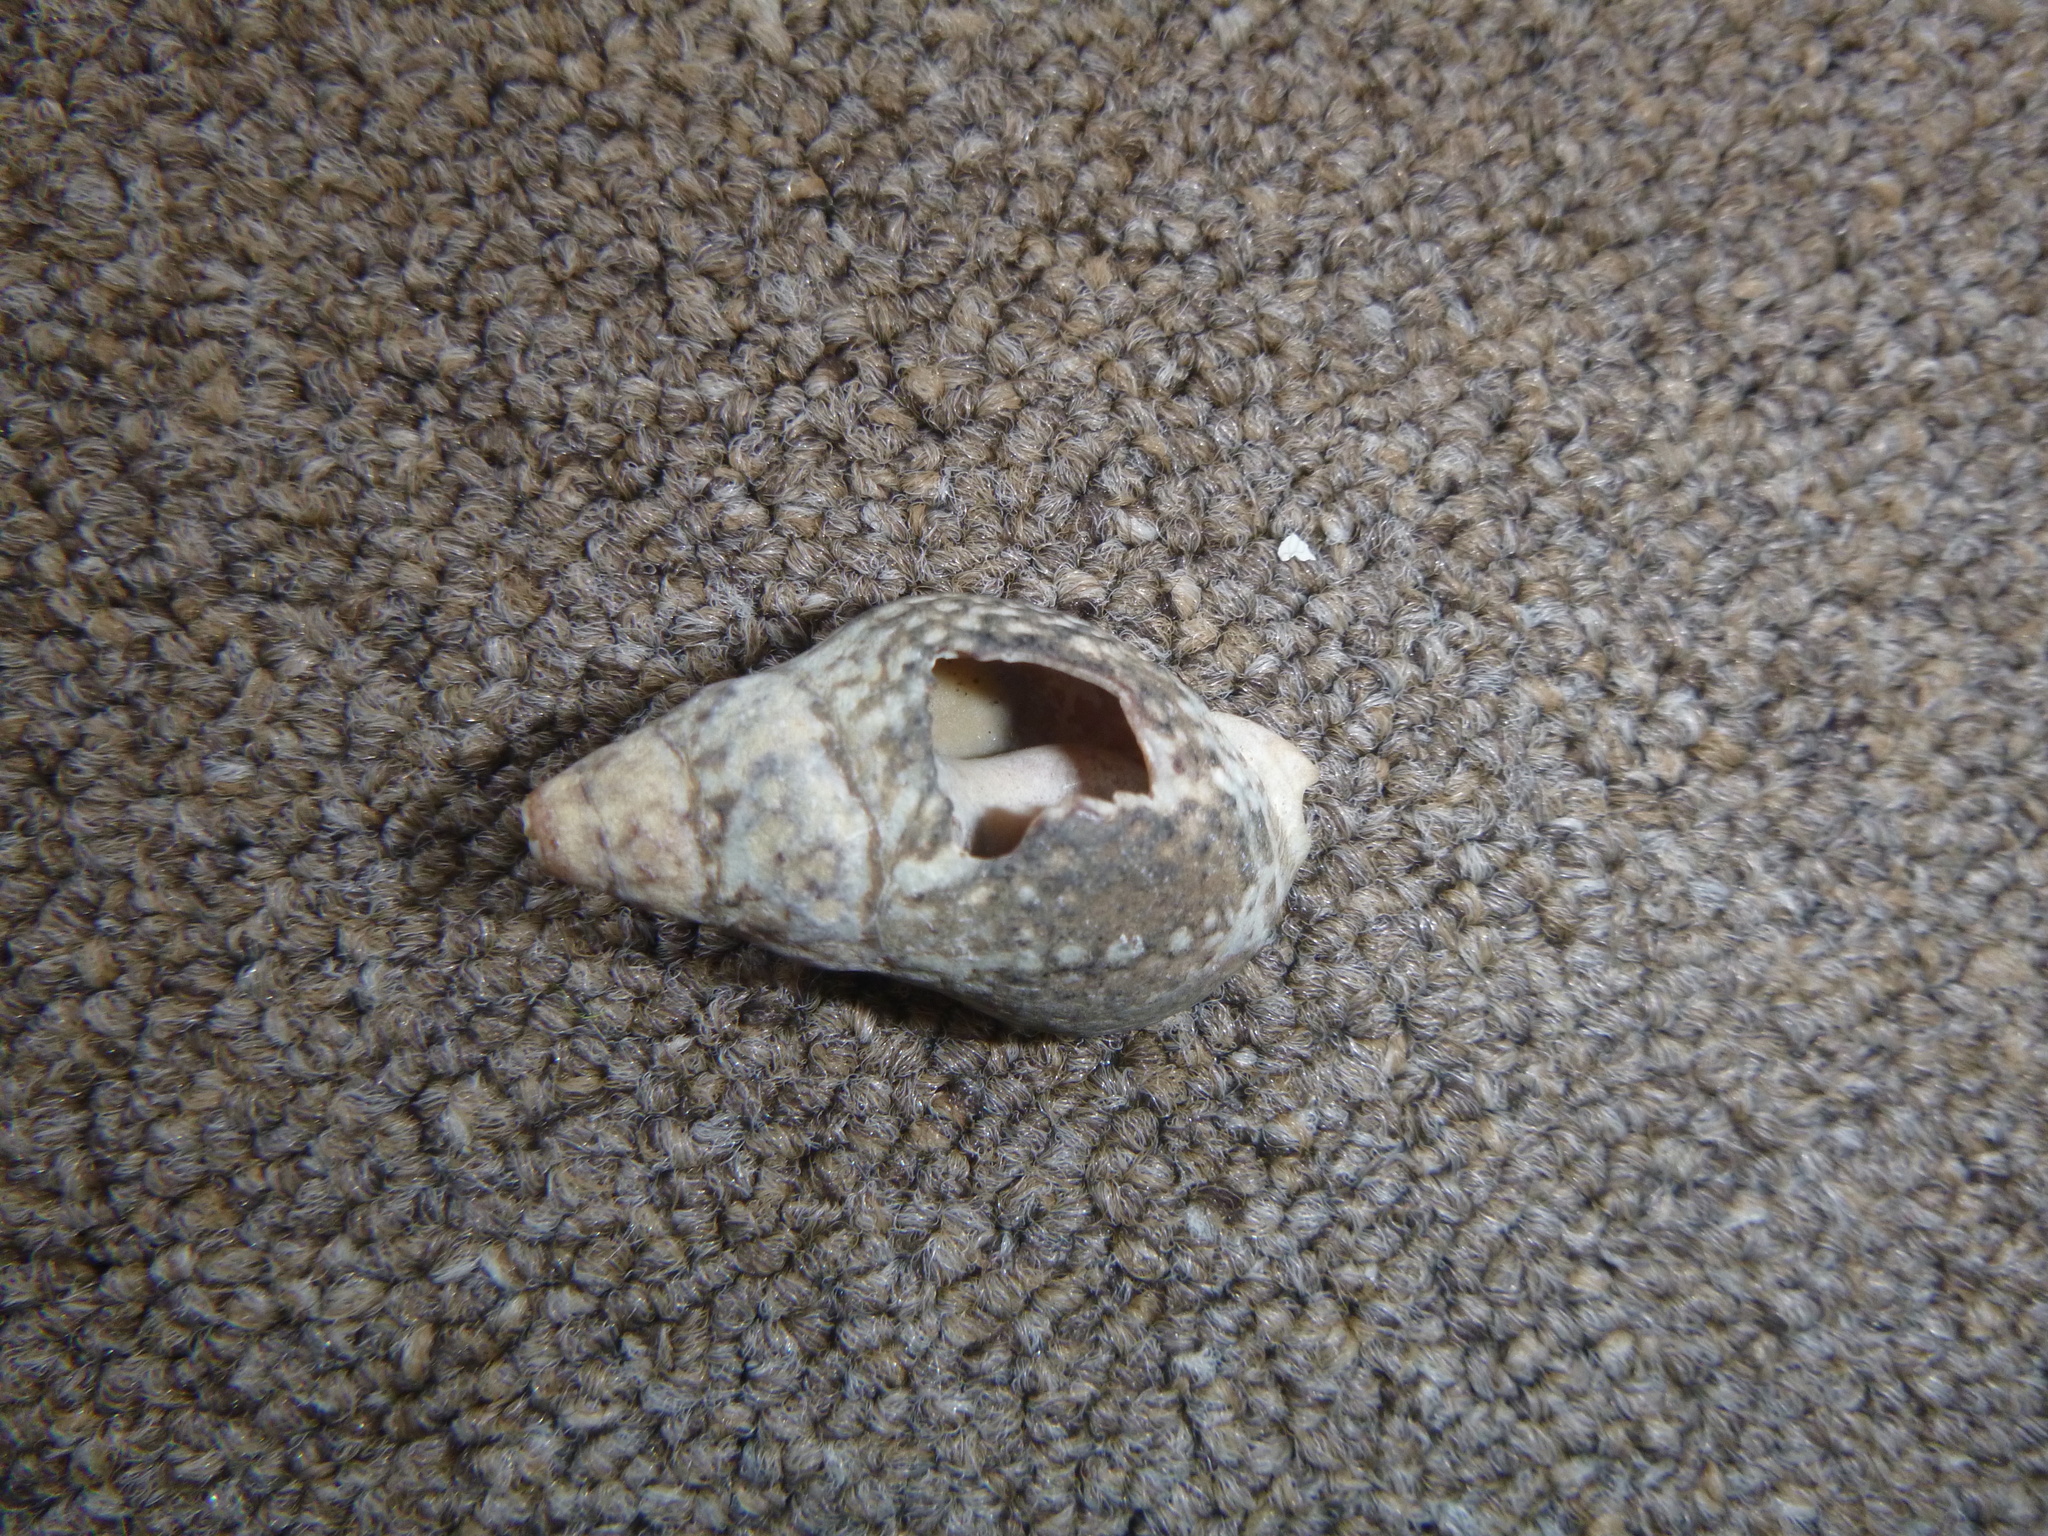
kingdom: Animalia
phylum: Mollusca
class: Gastropoda
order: Neogastropoda
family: Cominellidae
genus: Cominella
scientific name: Cominella maculosa
